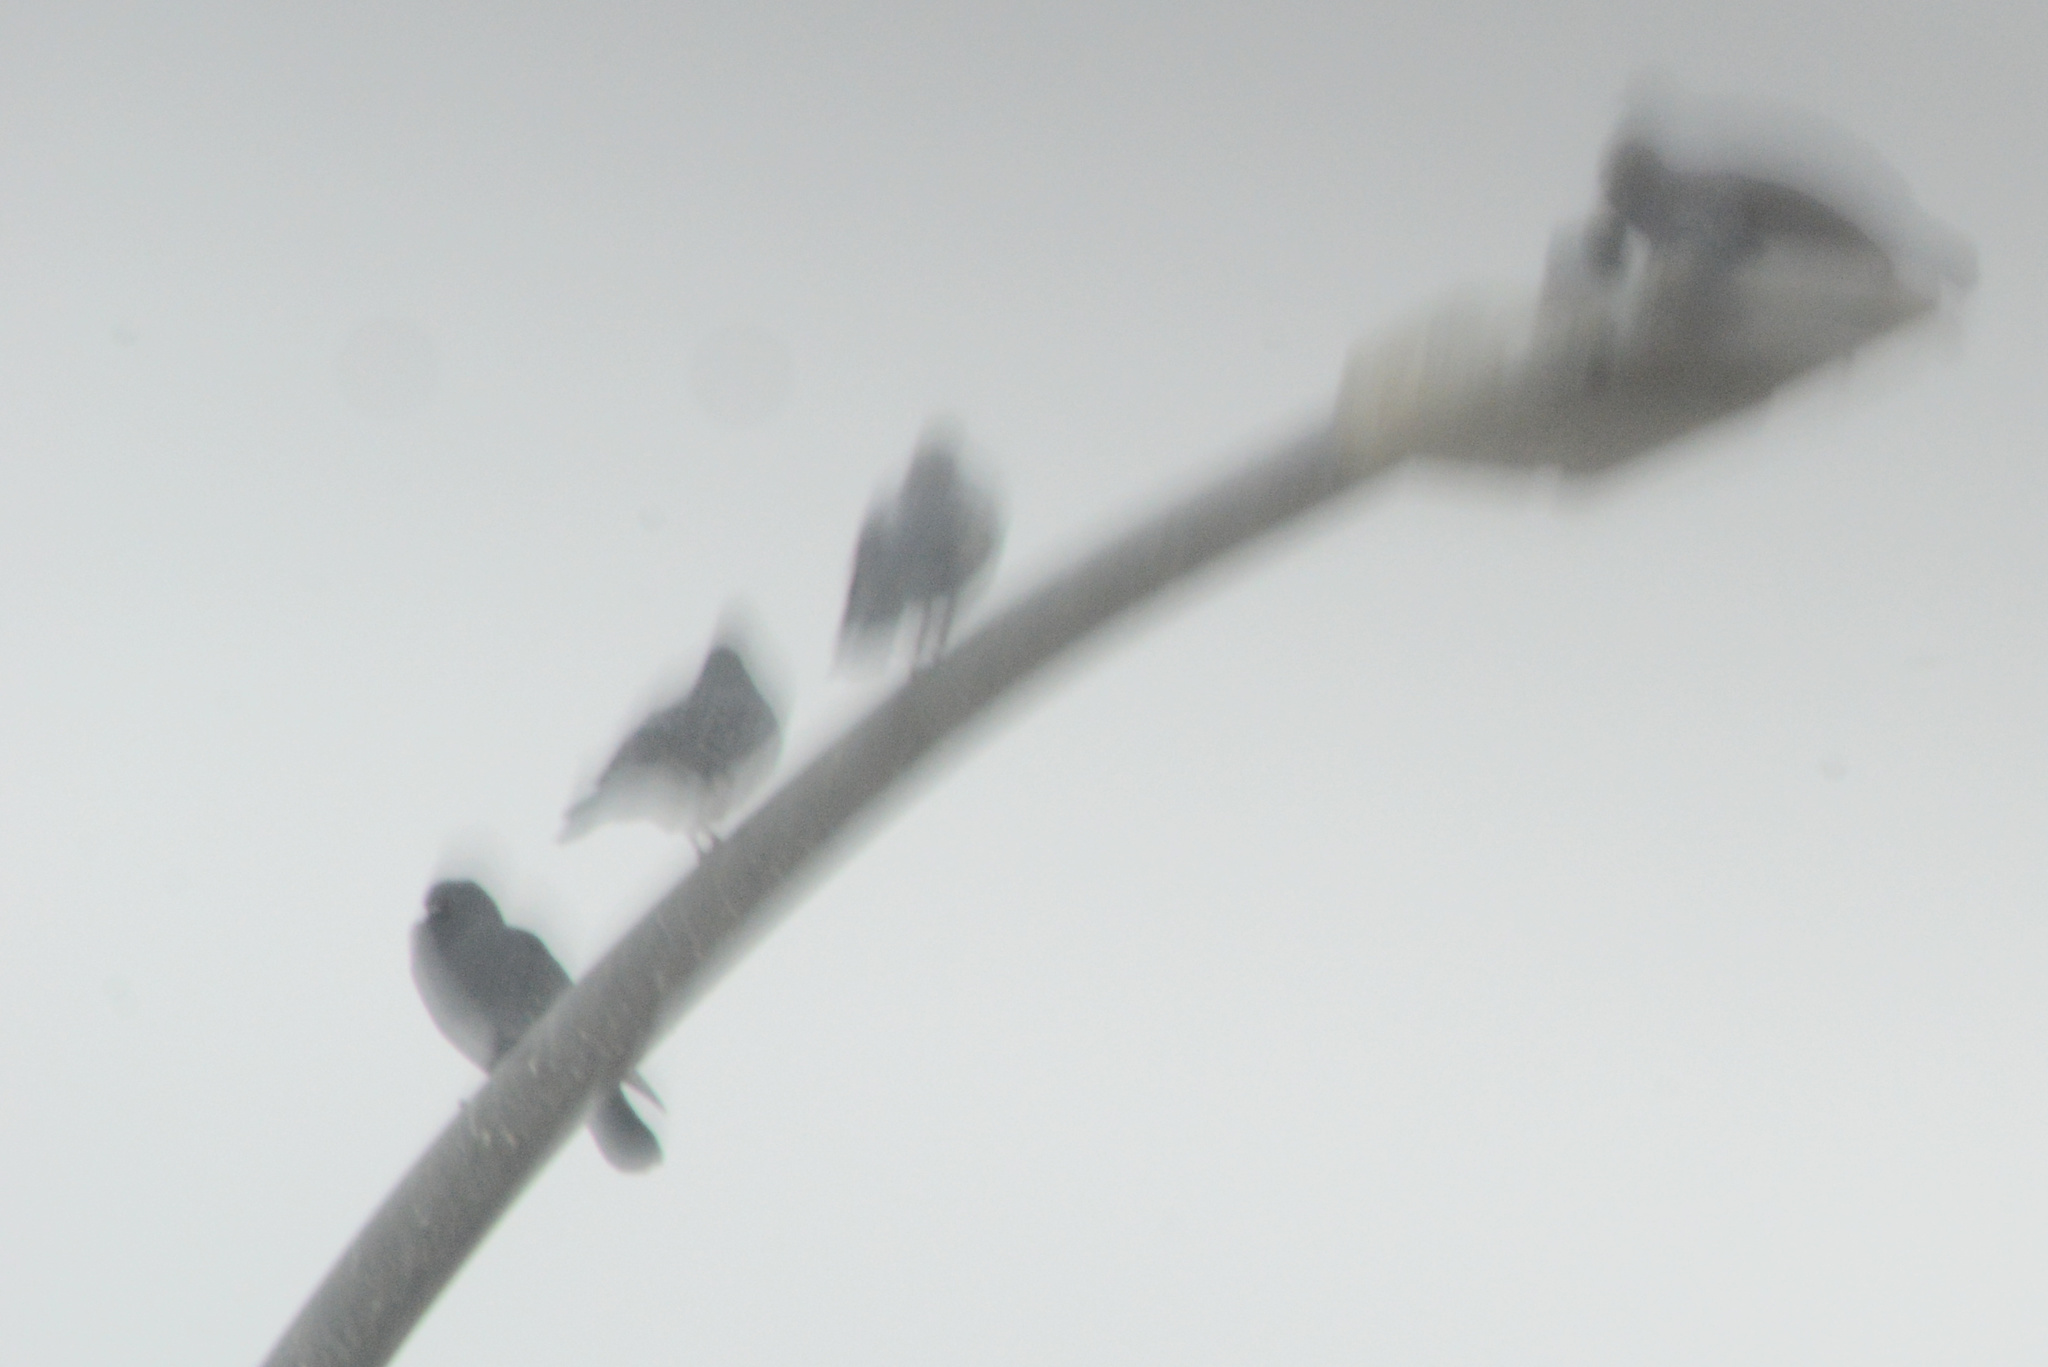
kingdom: Animalia
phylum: Chordata
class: Aves
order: Columbiformes
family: Columbidae
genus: Columba
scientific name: Columba livia
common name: Rock pigeon
